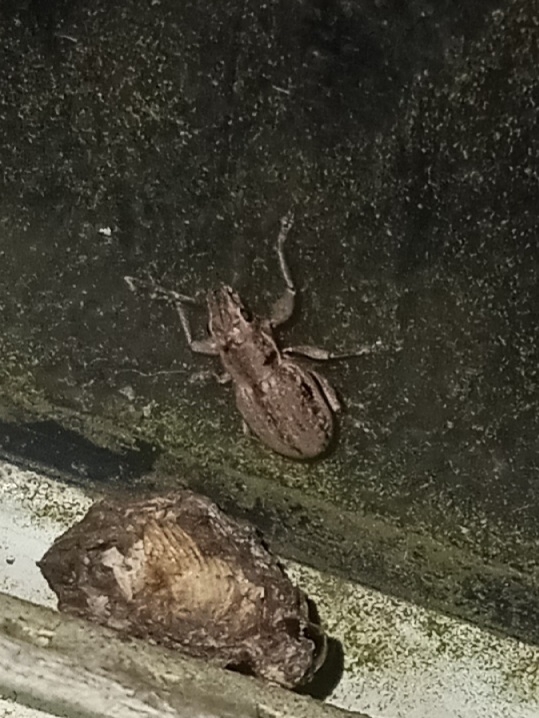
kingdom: Animalia
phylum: Arthropoda
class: Insecta
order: Coleoptera
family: Curculionidae
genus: Atrichonotus
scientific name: Atrichonotus taeniatulus
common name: Small lucerne weevil
